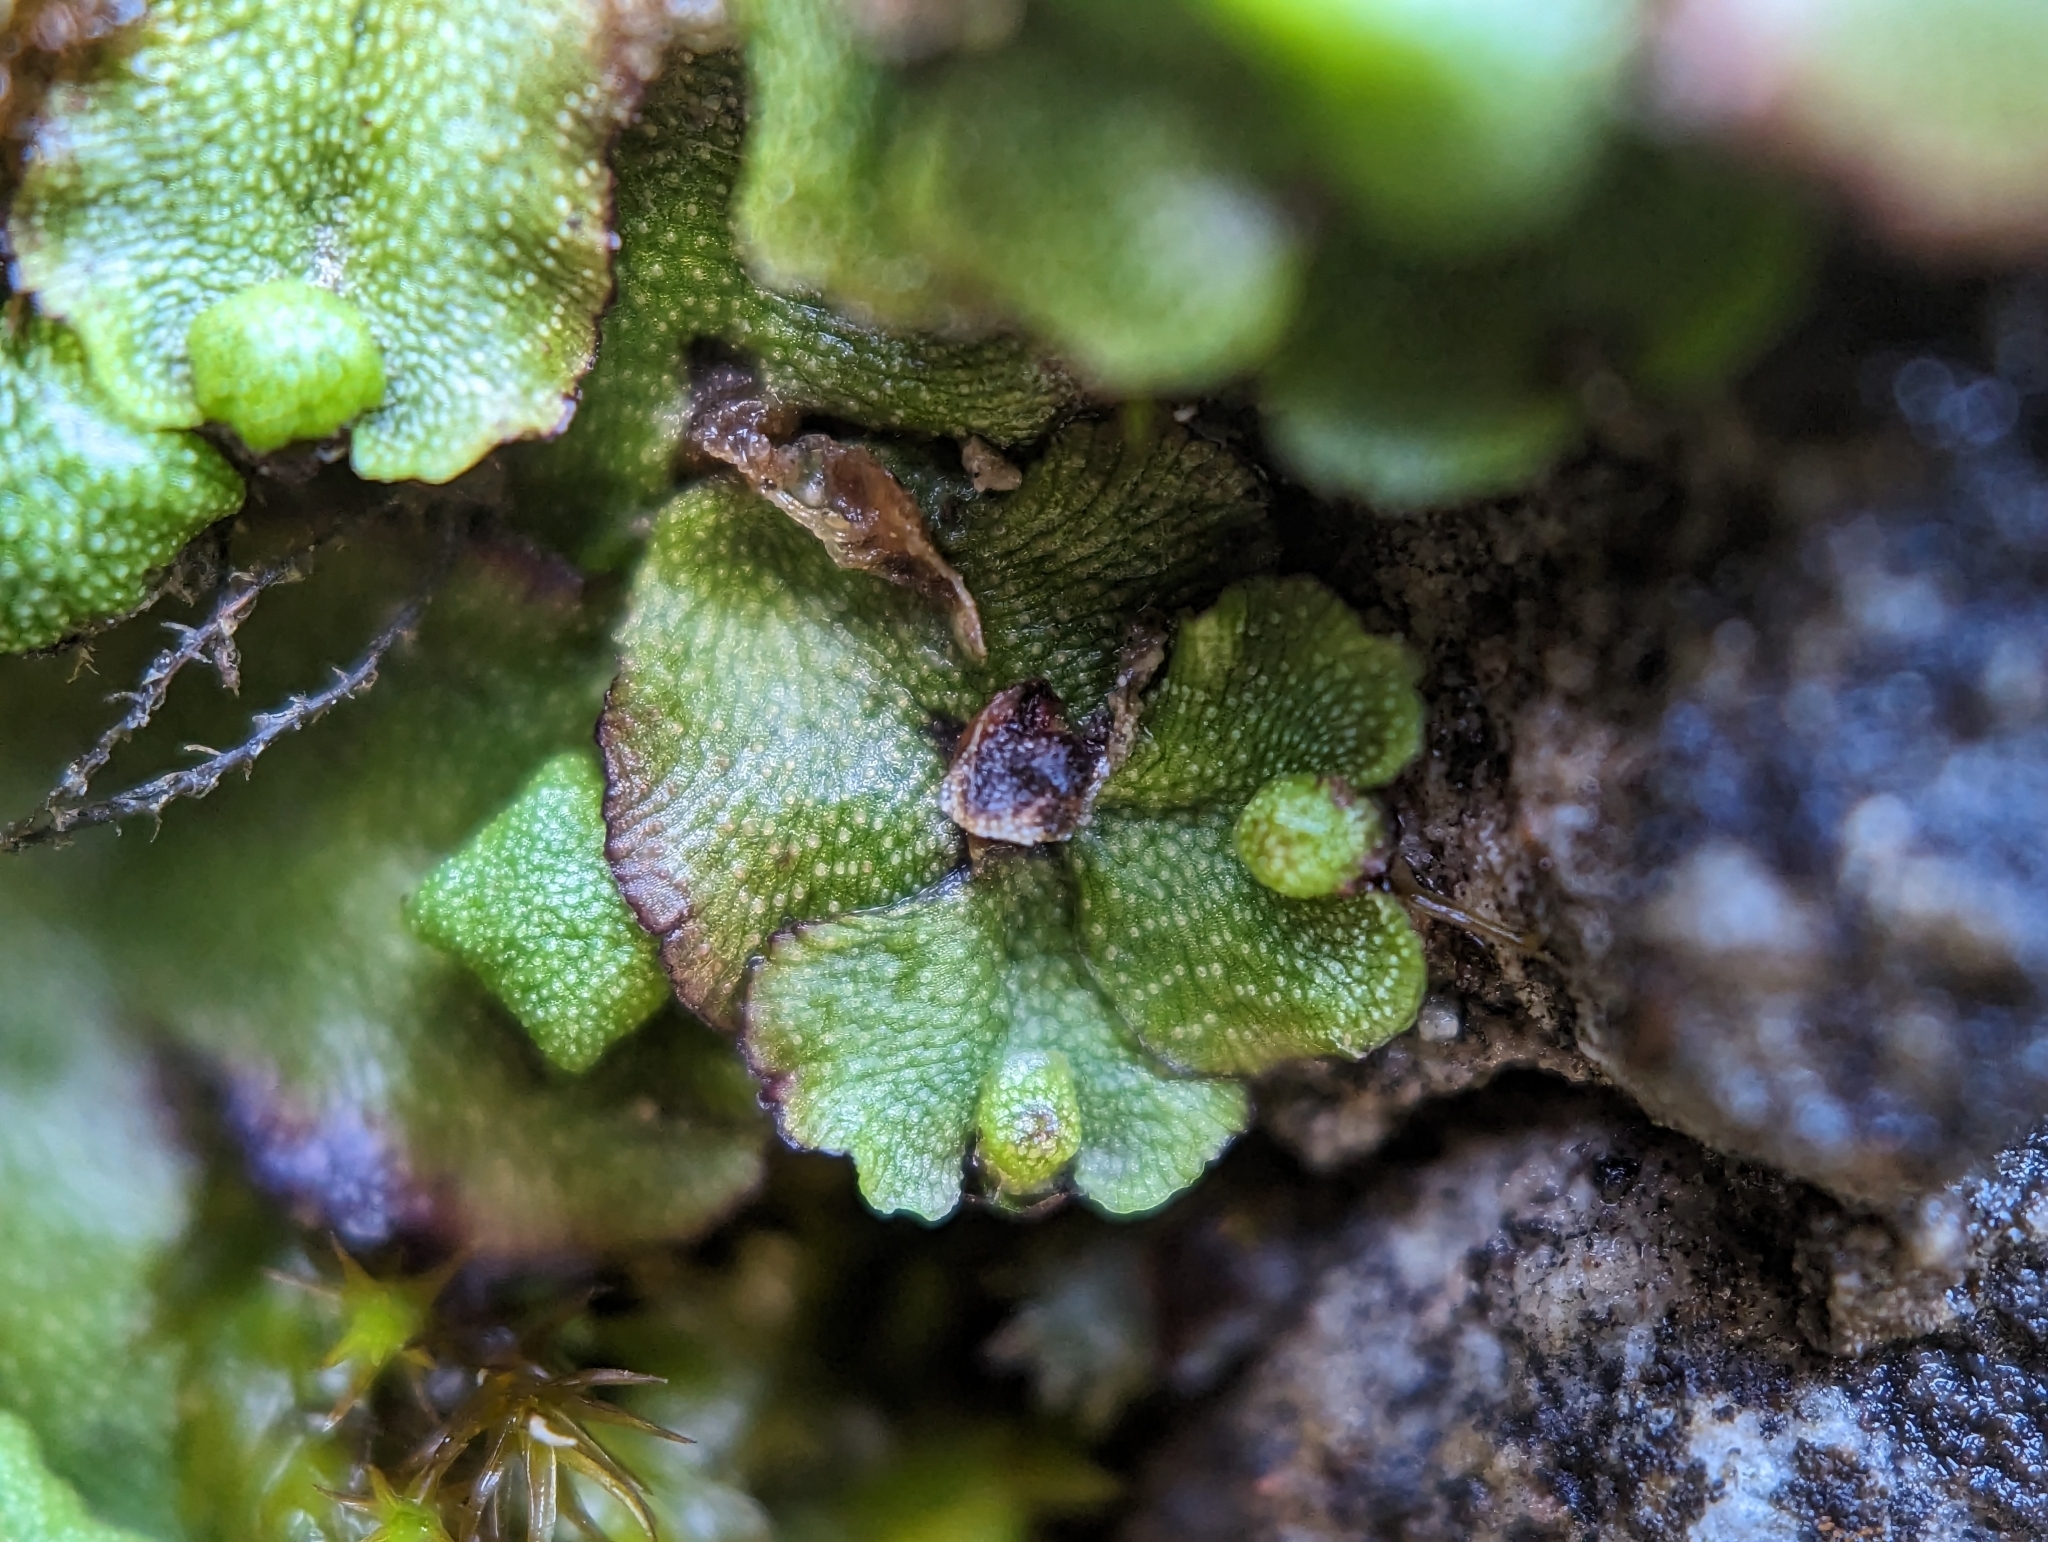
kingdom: Plantae
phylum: Marchantiophyta
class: Marchantiopsida
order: Marchantiales
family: Marchantiaceae
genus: Marchantia
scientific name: Marchantia quadrata
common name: Narrow mushroom-headed liverwort
